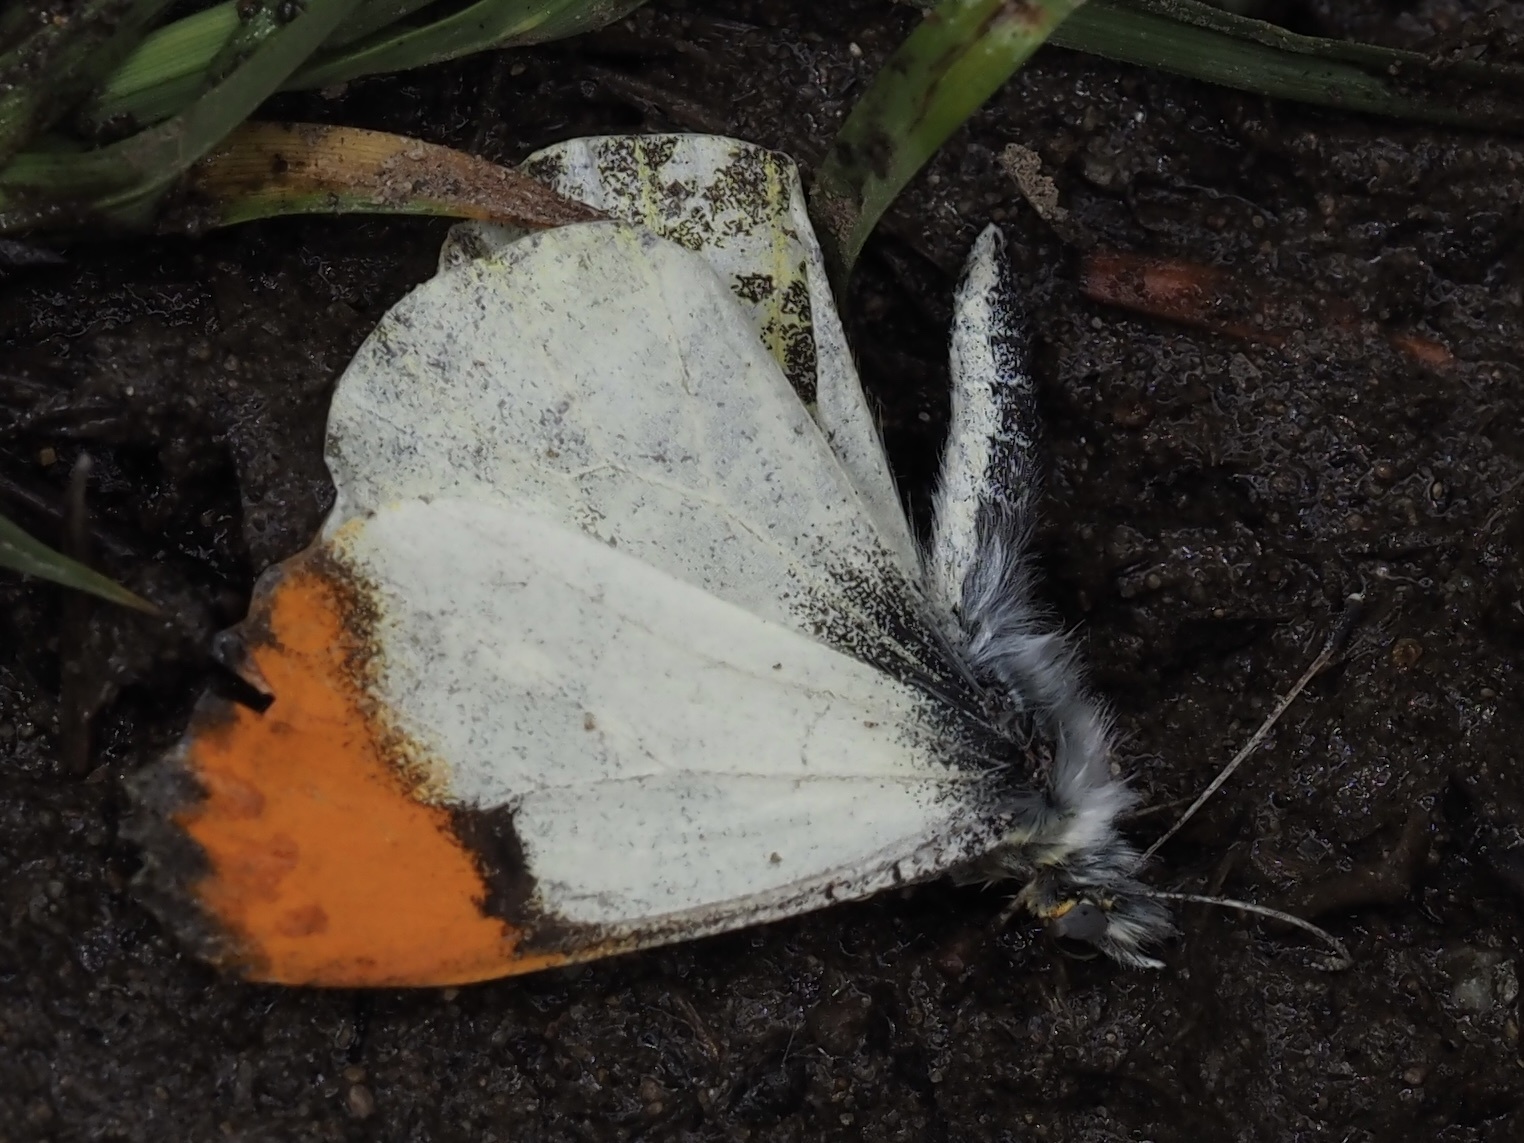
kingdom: Animalia
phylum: Arthropoda
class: Insecta
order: Lepidoptera
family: Pieridae
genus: Anthocharis
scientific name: Anthocharis julia
